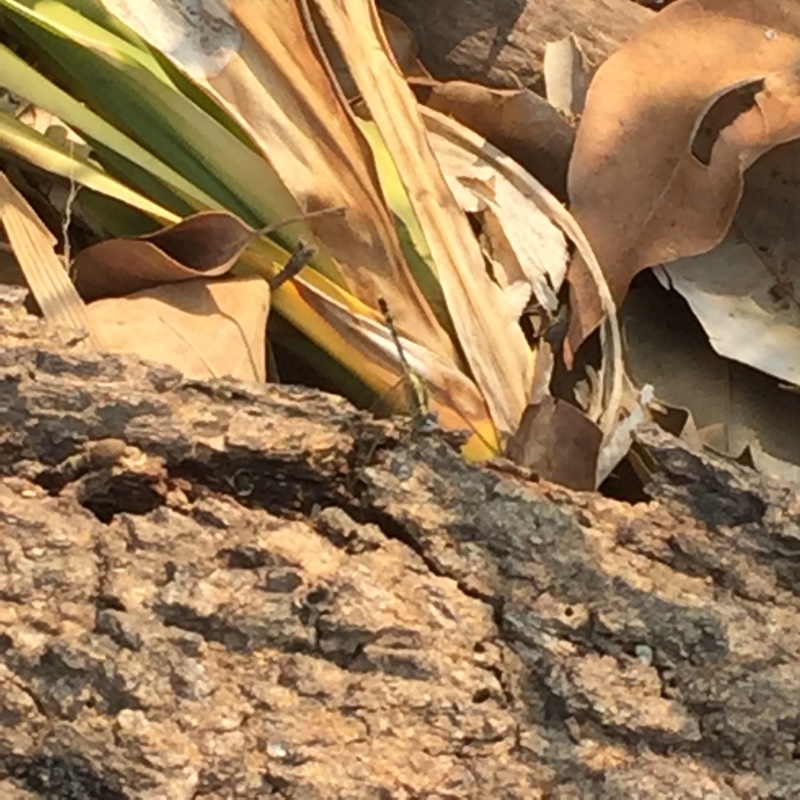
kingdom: Animalia
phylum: Arthropoda
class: Insecta
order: Odonata
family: Libellulidae
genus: Diplacodes
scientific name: Diplacodes trivialis
